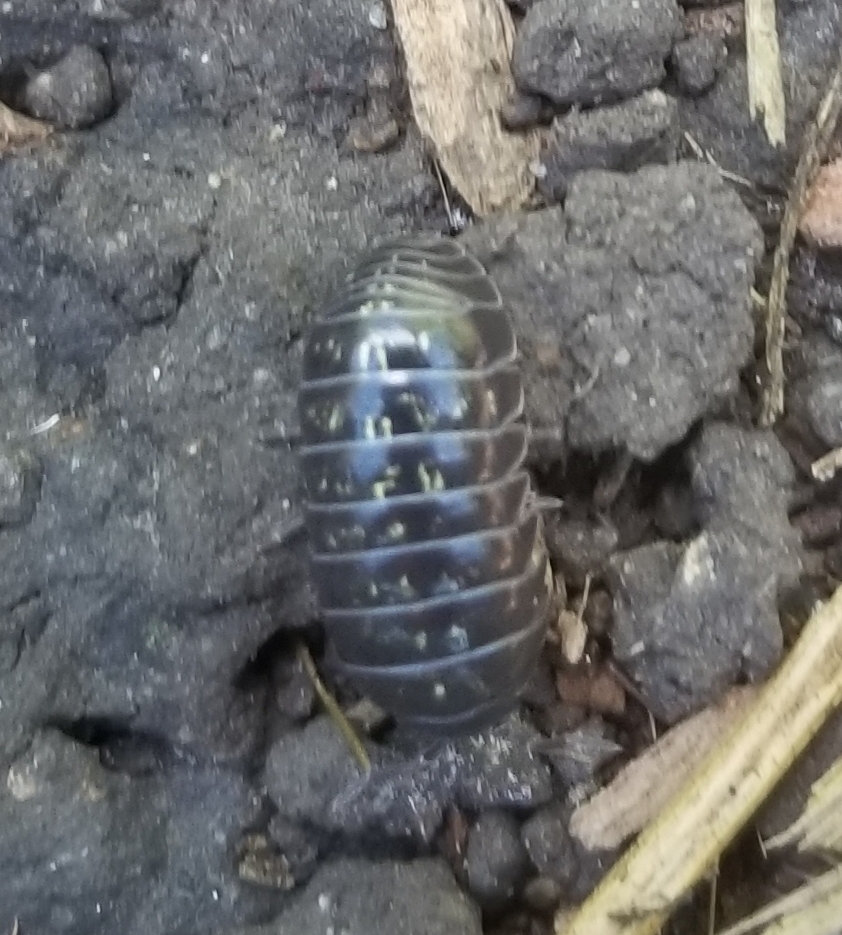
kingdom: Animalia
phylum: Arthropoda
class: Malacostraca
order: Isopoda
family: Armadillidiidae
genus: Armadillidium
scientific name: Armadillidium vulgare
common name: Common pill woodlouse
